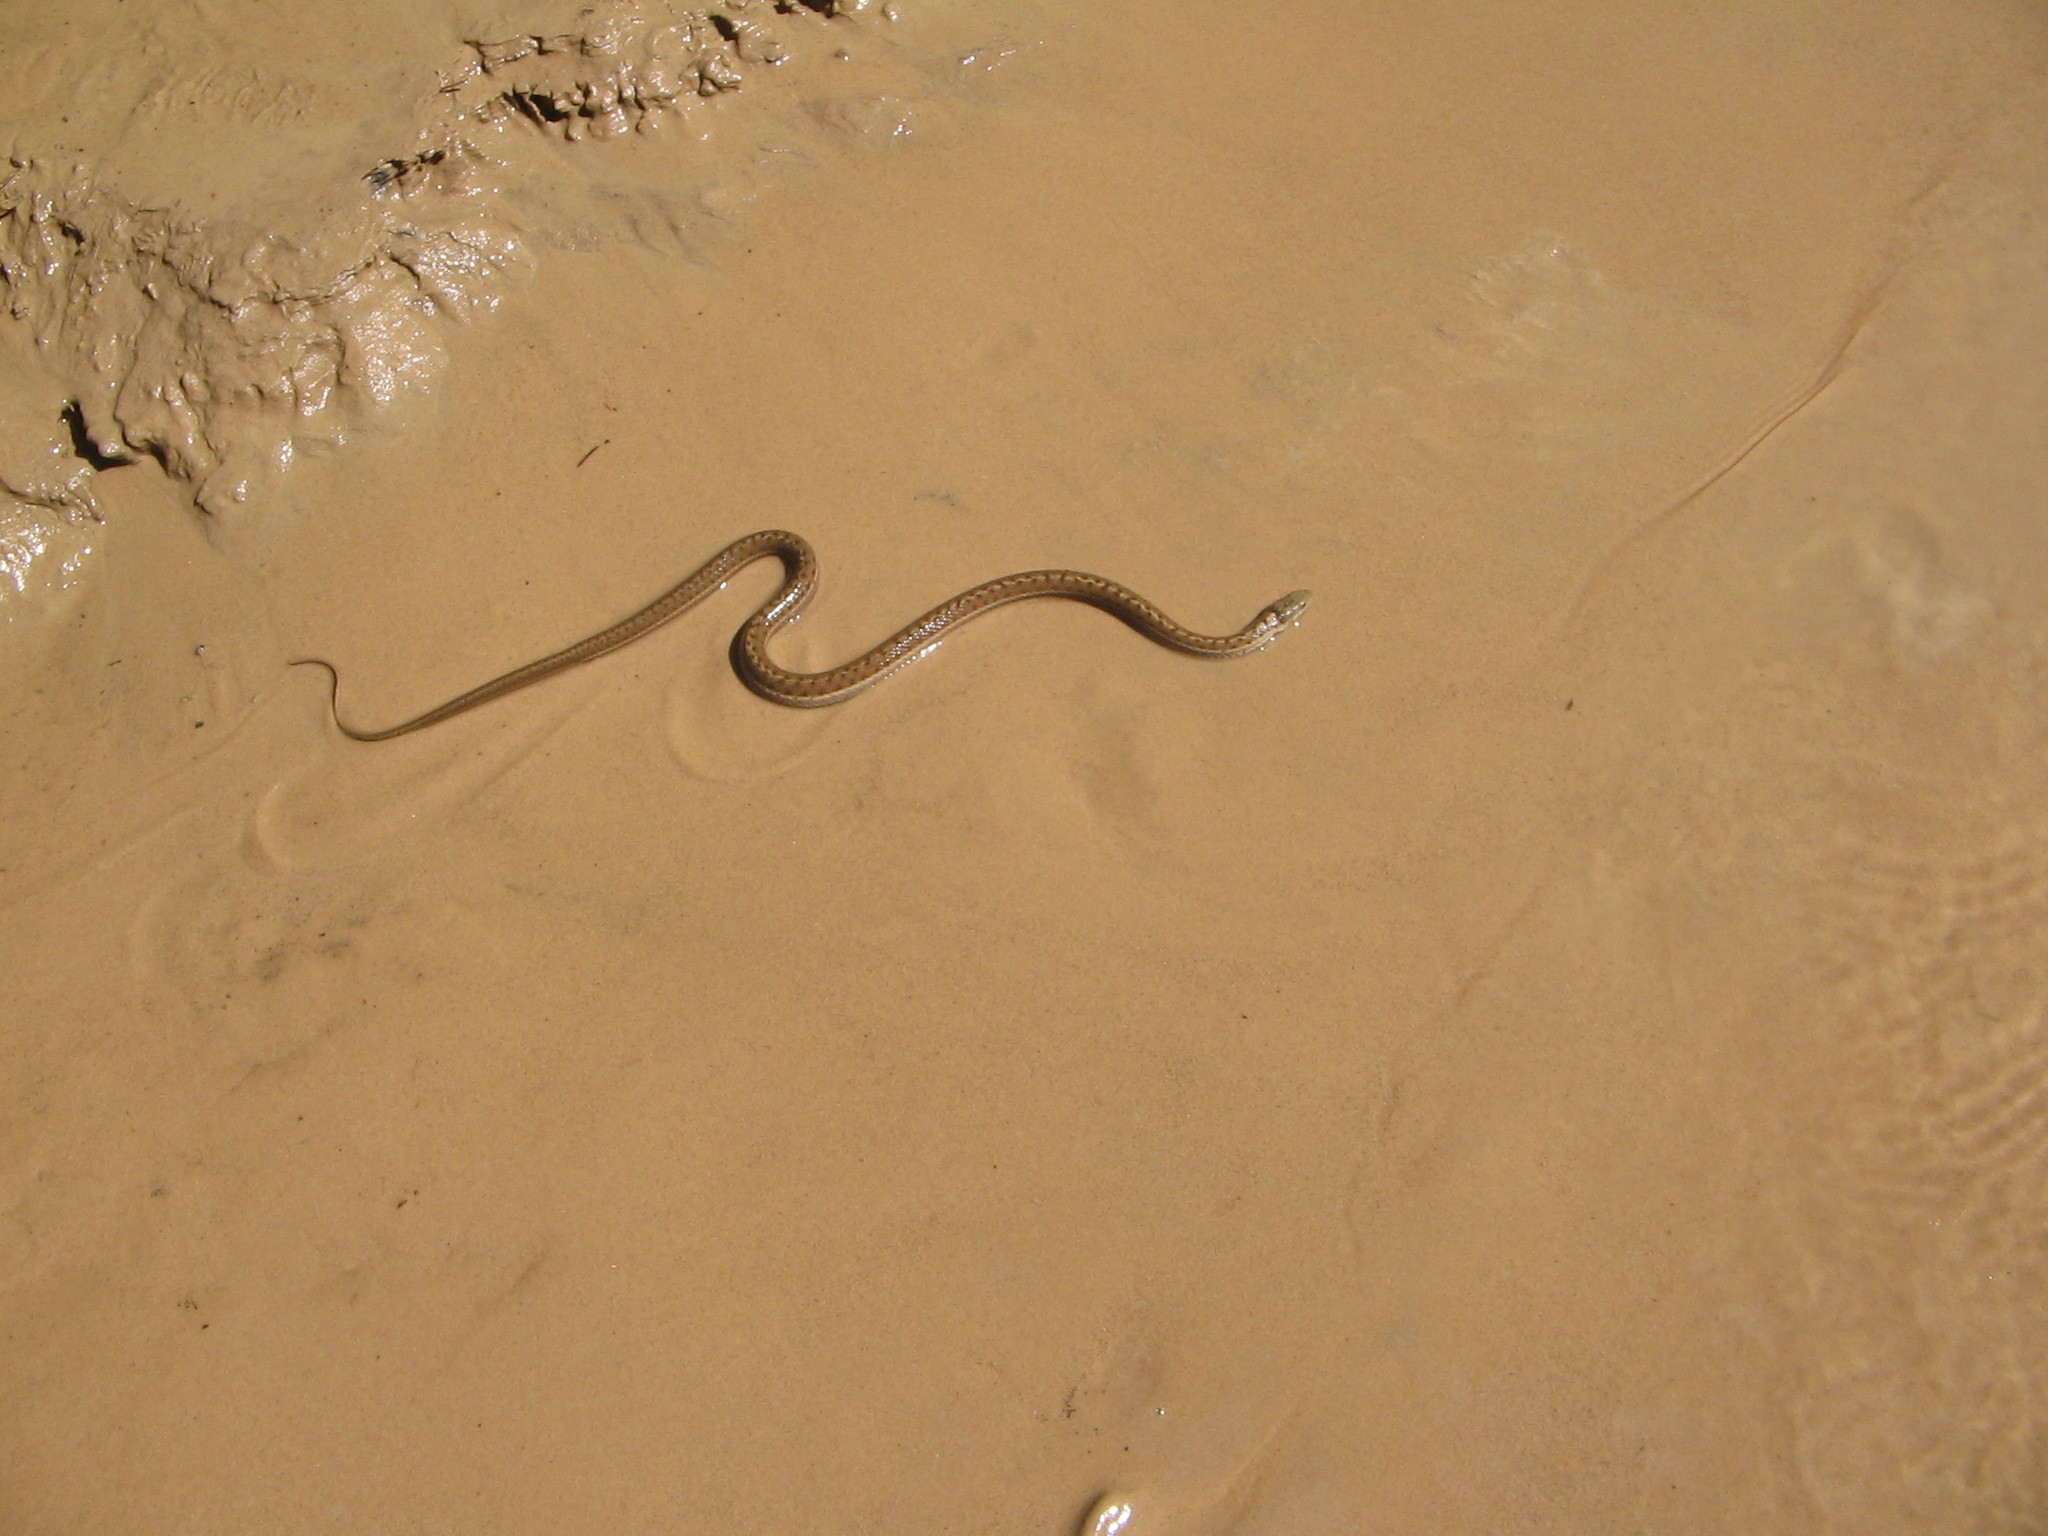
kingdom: Animalia
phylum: Chordata
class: Squamata
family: Colubridae
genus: Thamnophis
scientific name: Thamnophis elegans
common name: Western terrestrial garter snake
